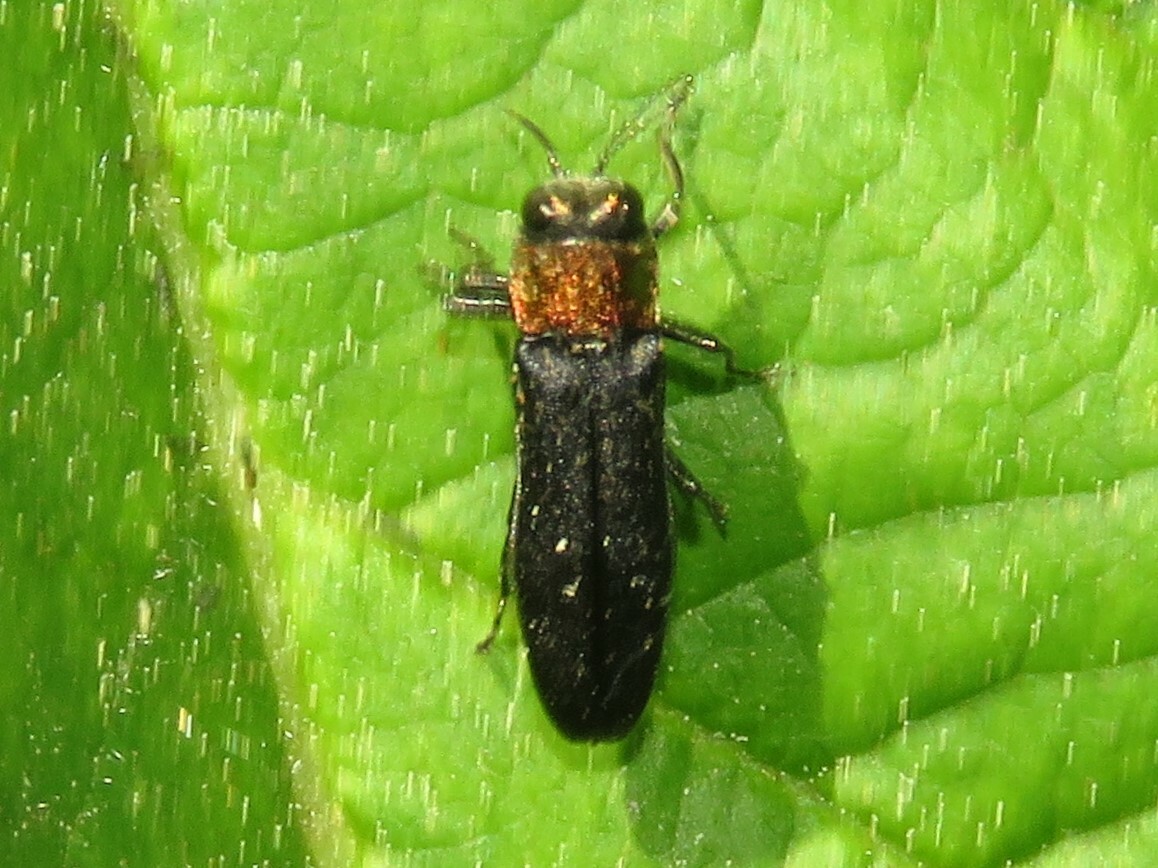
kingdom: Animalia
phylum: Arthropoda
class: Insecta
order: Coleoptera
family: Buprestidae
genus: Agrilus
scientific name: Agrilus ruficollis
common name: Red-necked cane borer beetle
